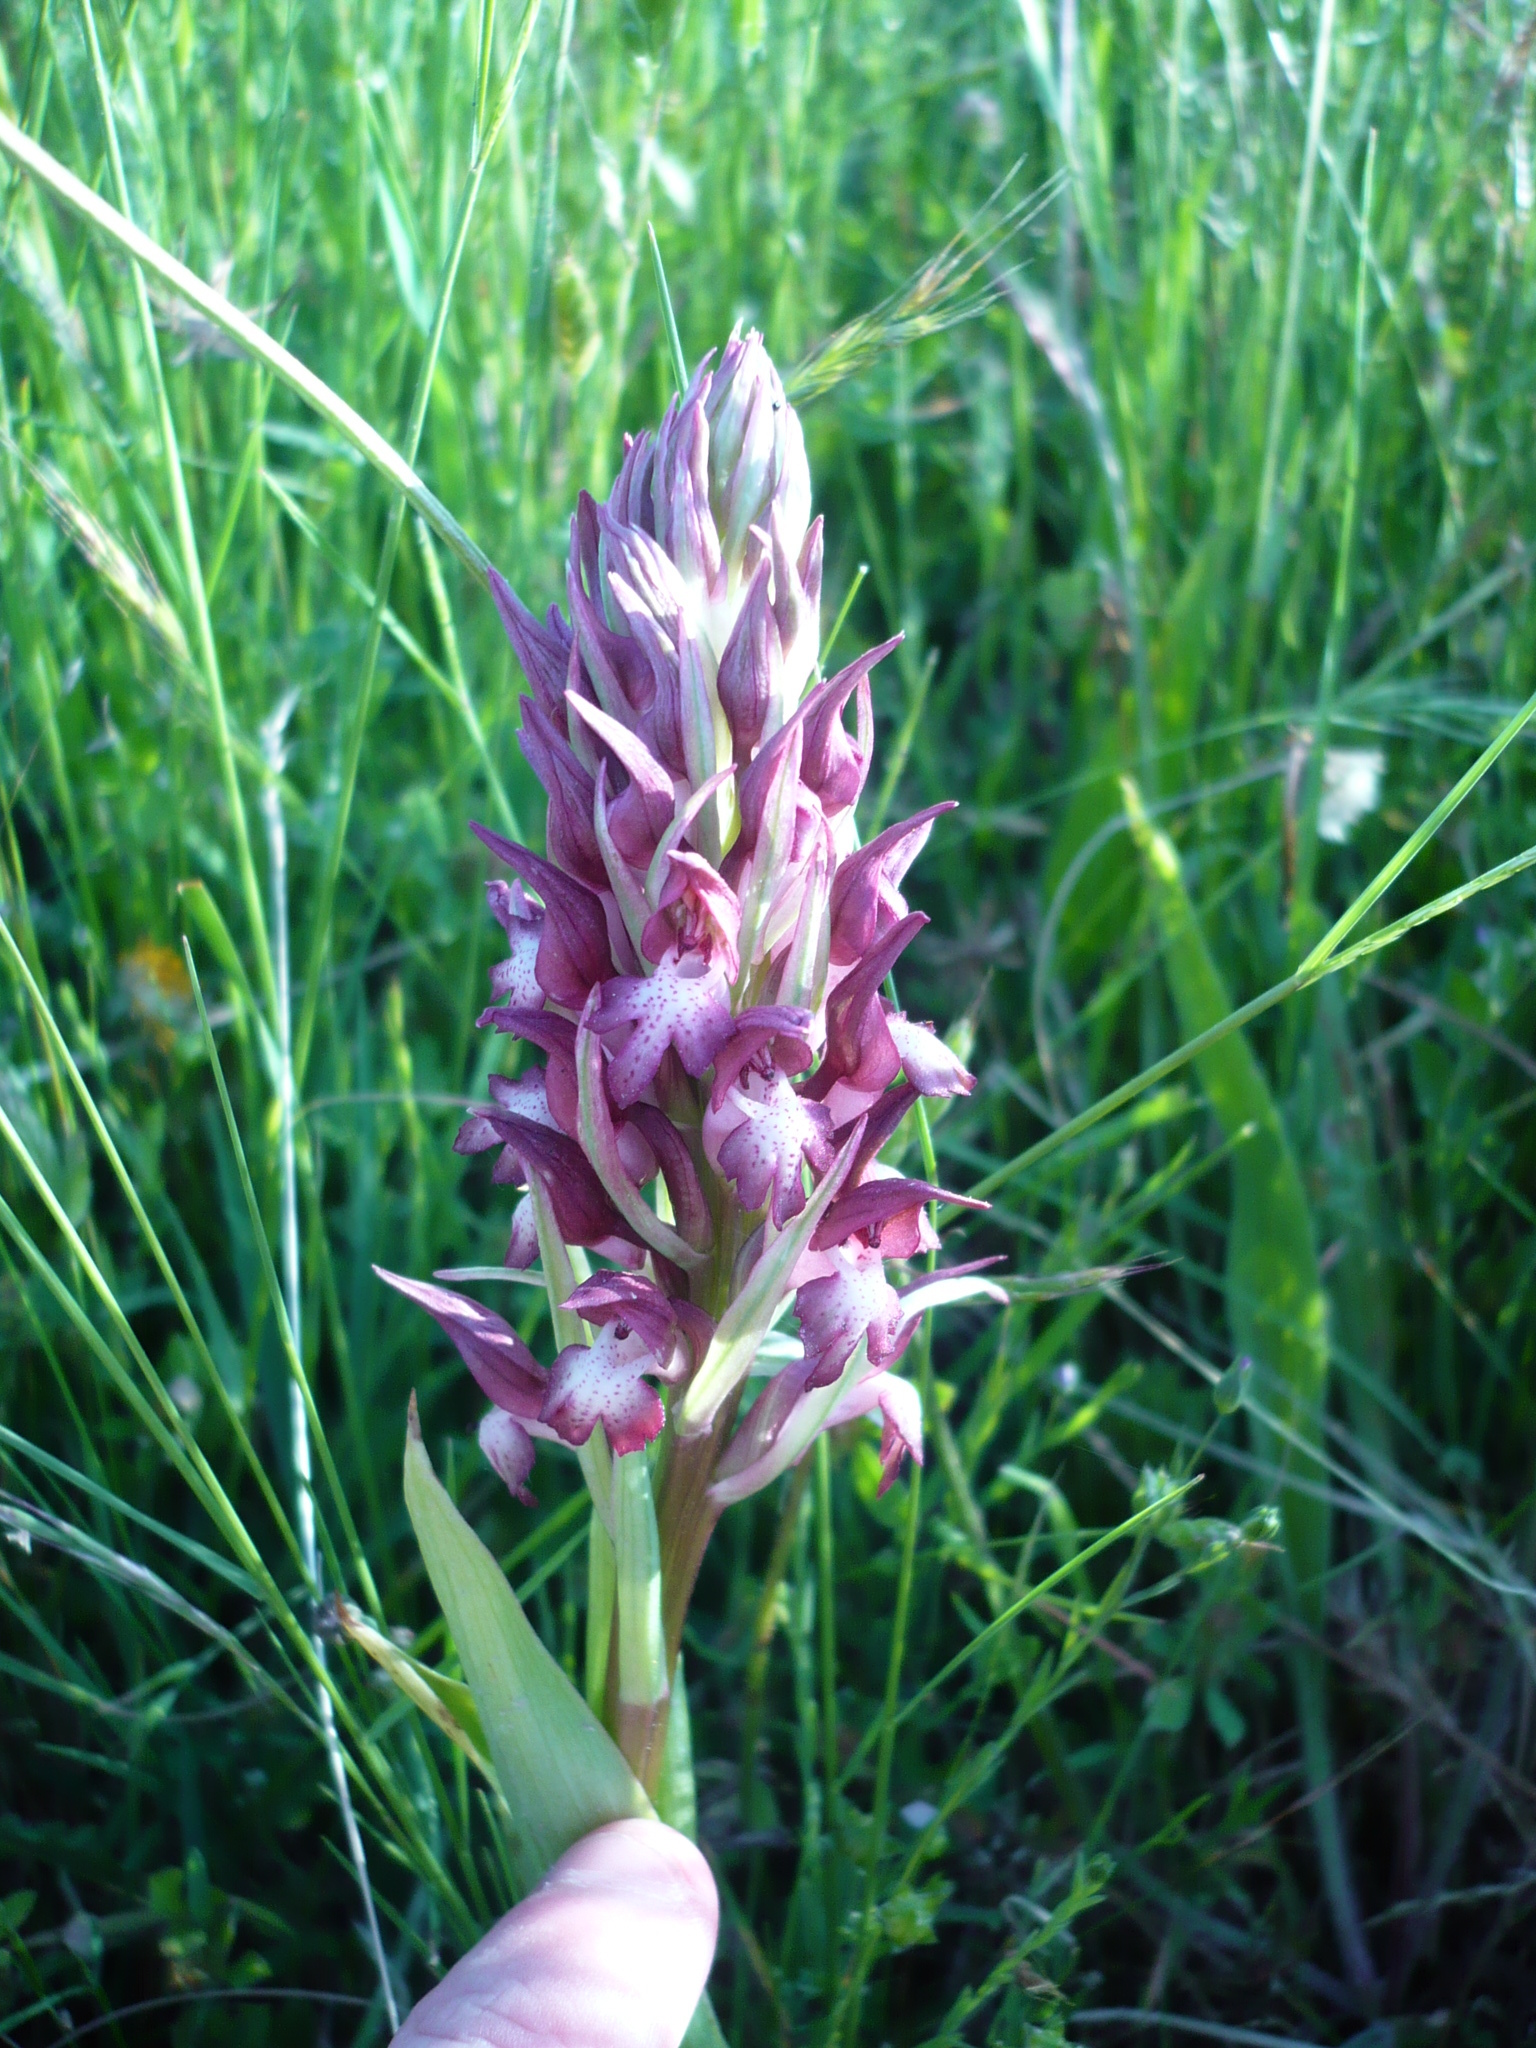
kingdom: Plantae
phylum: Tracheophyta
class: Liliopsida
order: Asparagales
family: Orchidaceae
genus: Anacamptis
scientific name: Anacamptis coriophora
